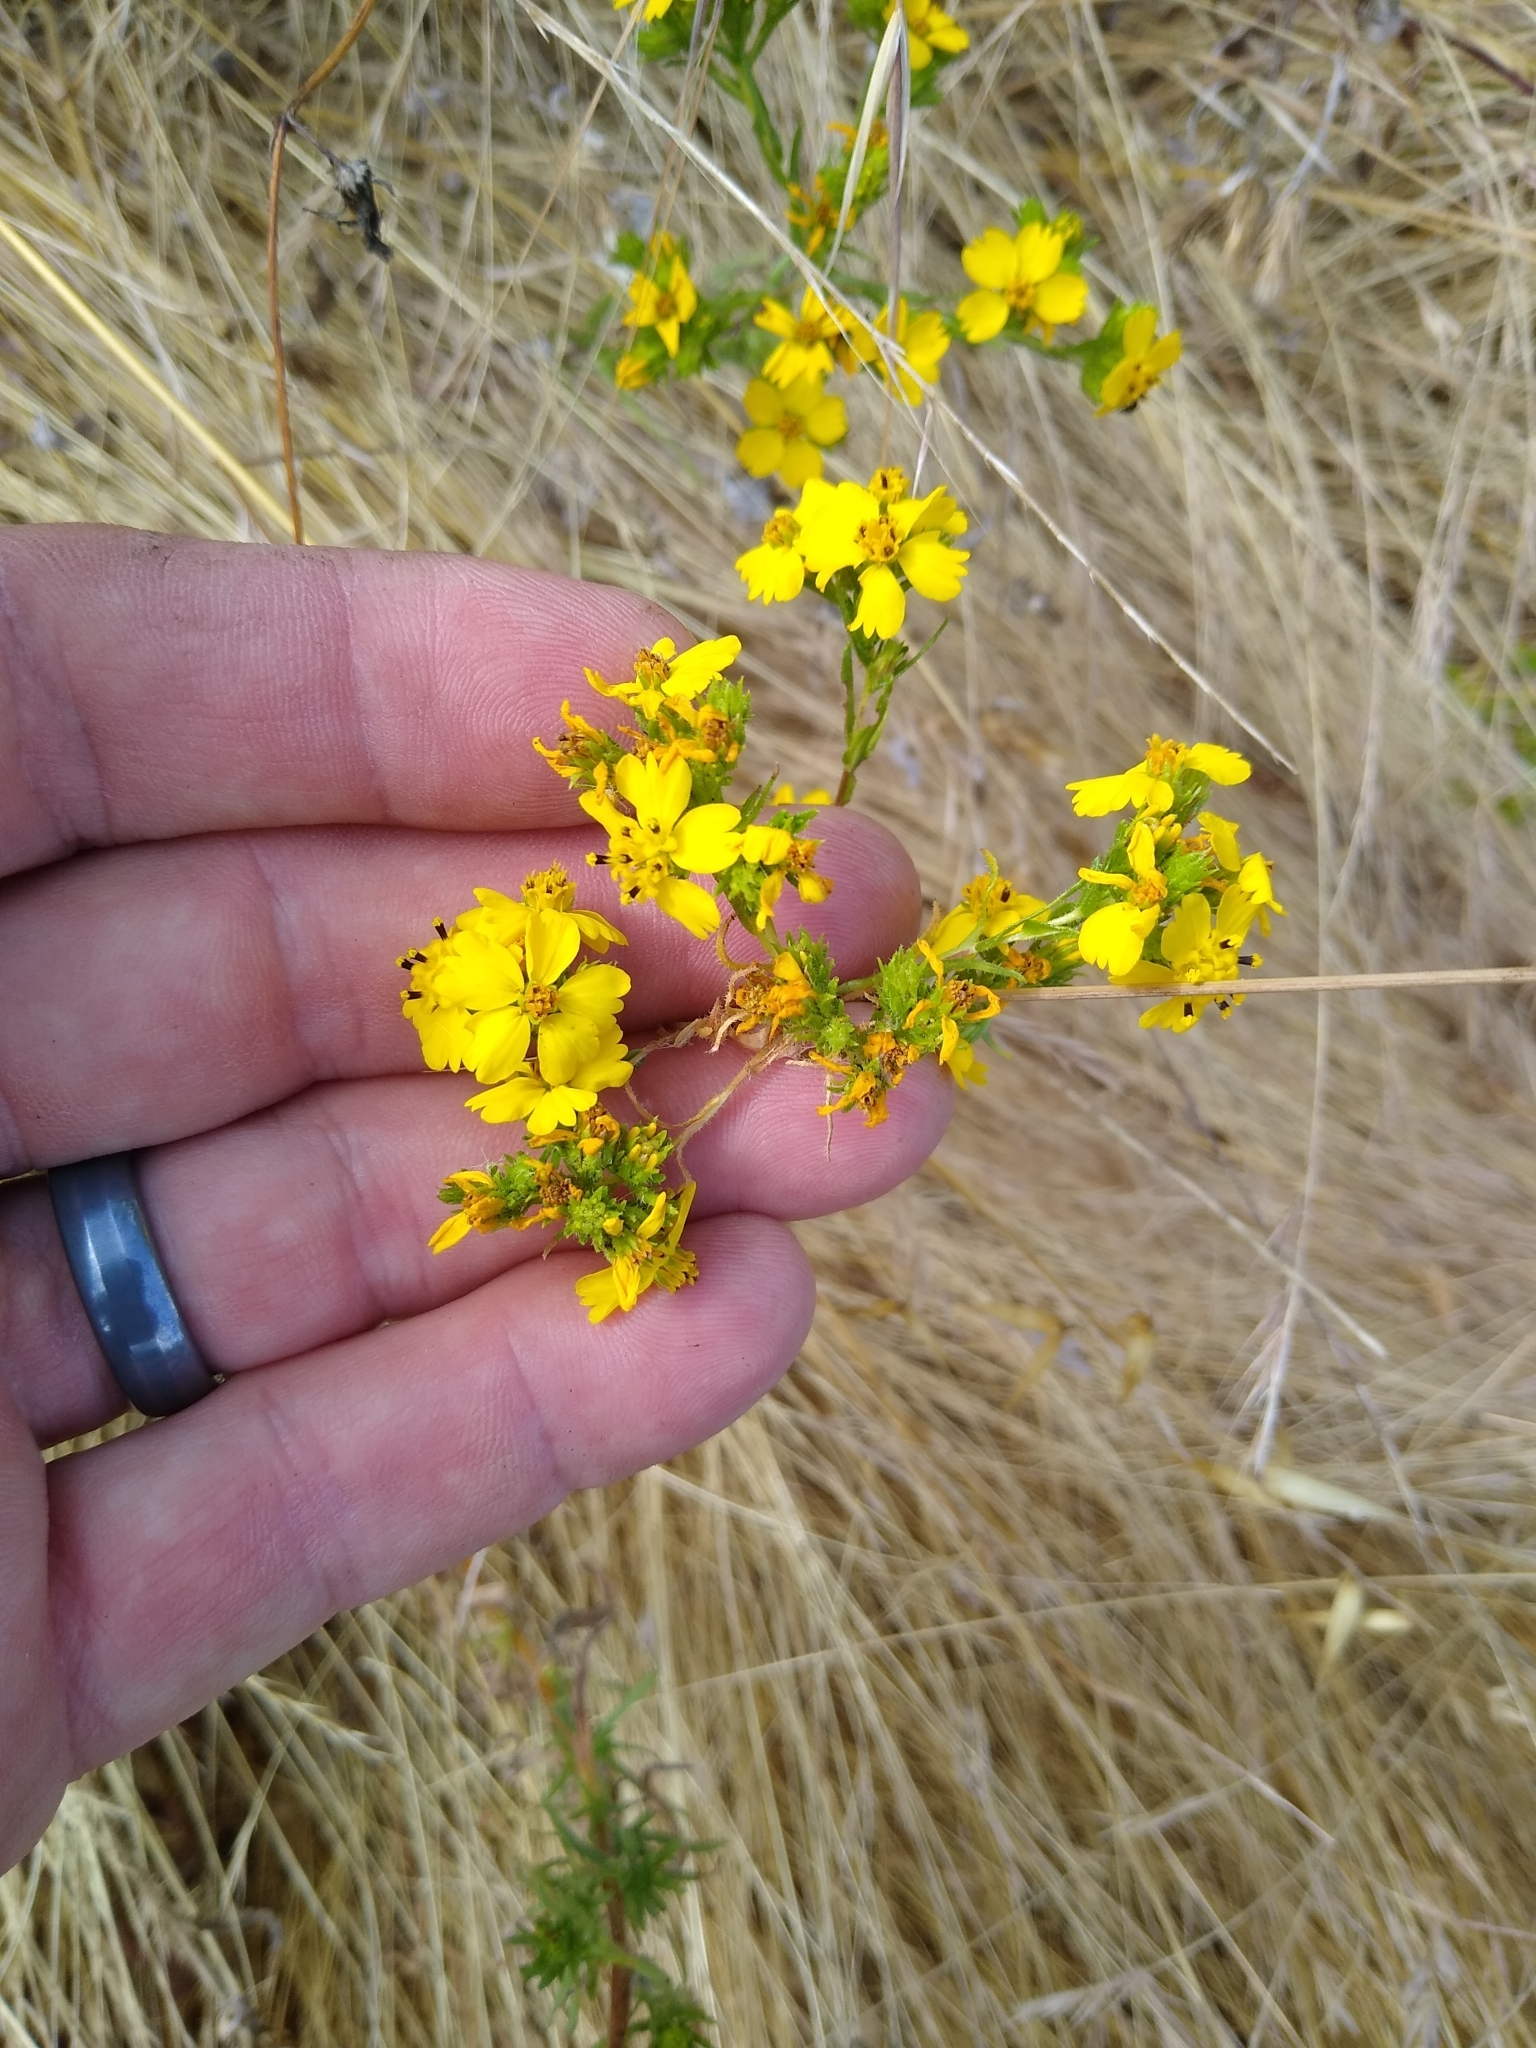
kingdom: Plantae
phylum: Tracheophyta
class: Magnoliopsida
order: Asterales
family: Asteraceae
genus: Deinandra
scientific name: Deinandra fasciculata
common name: Clustered tarweed
